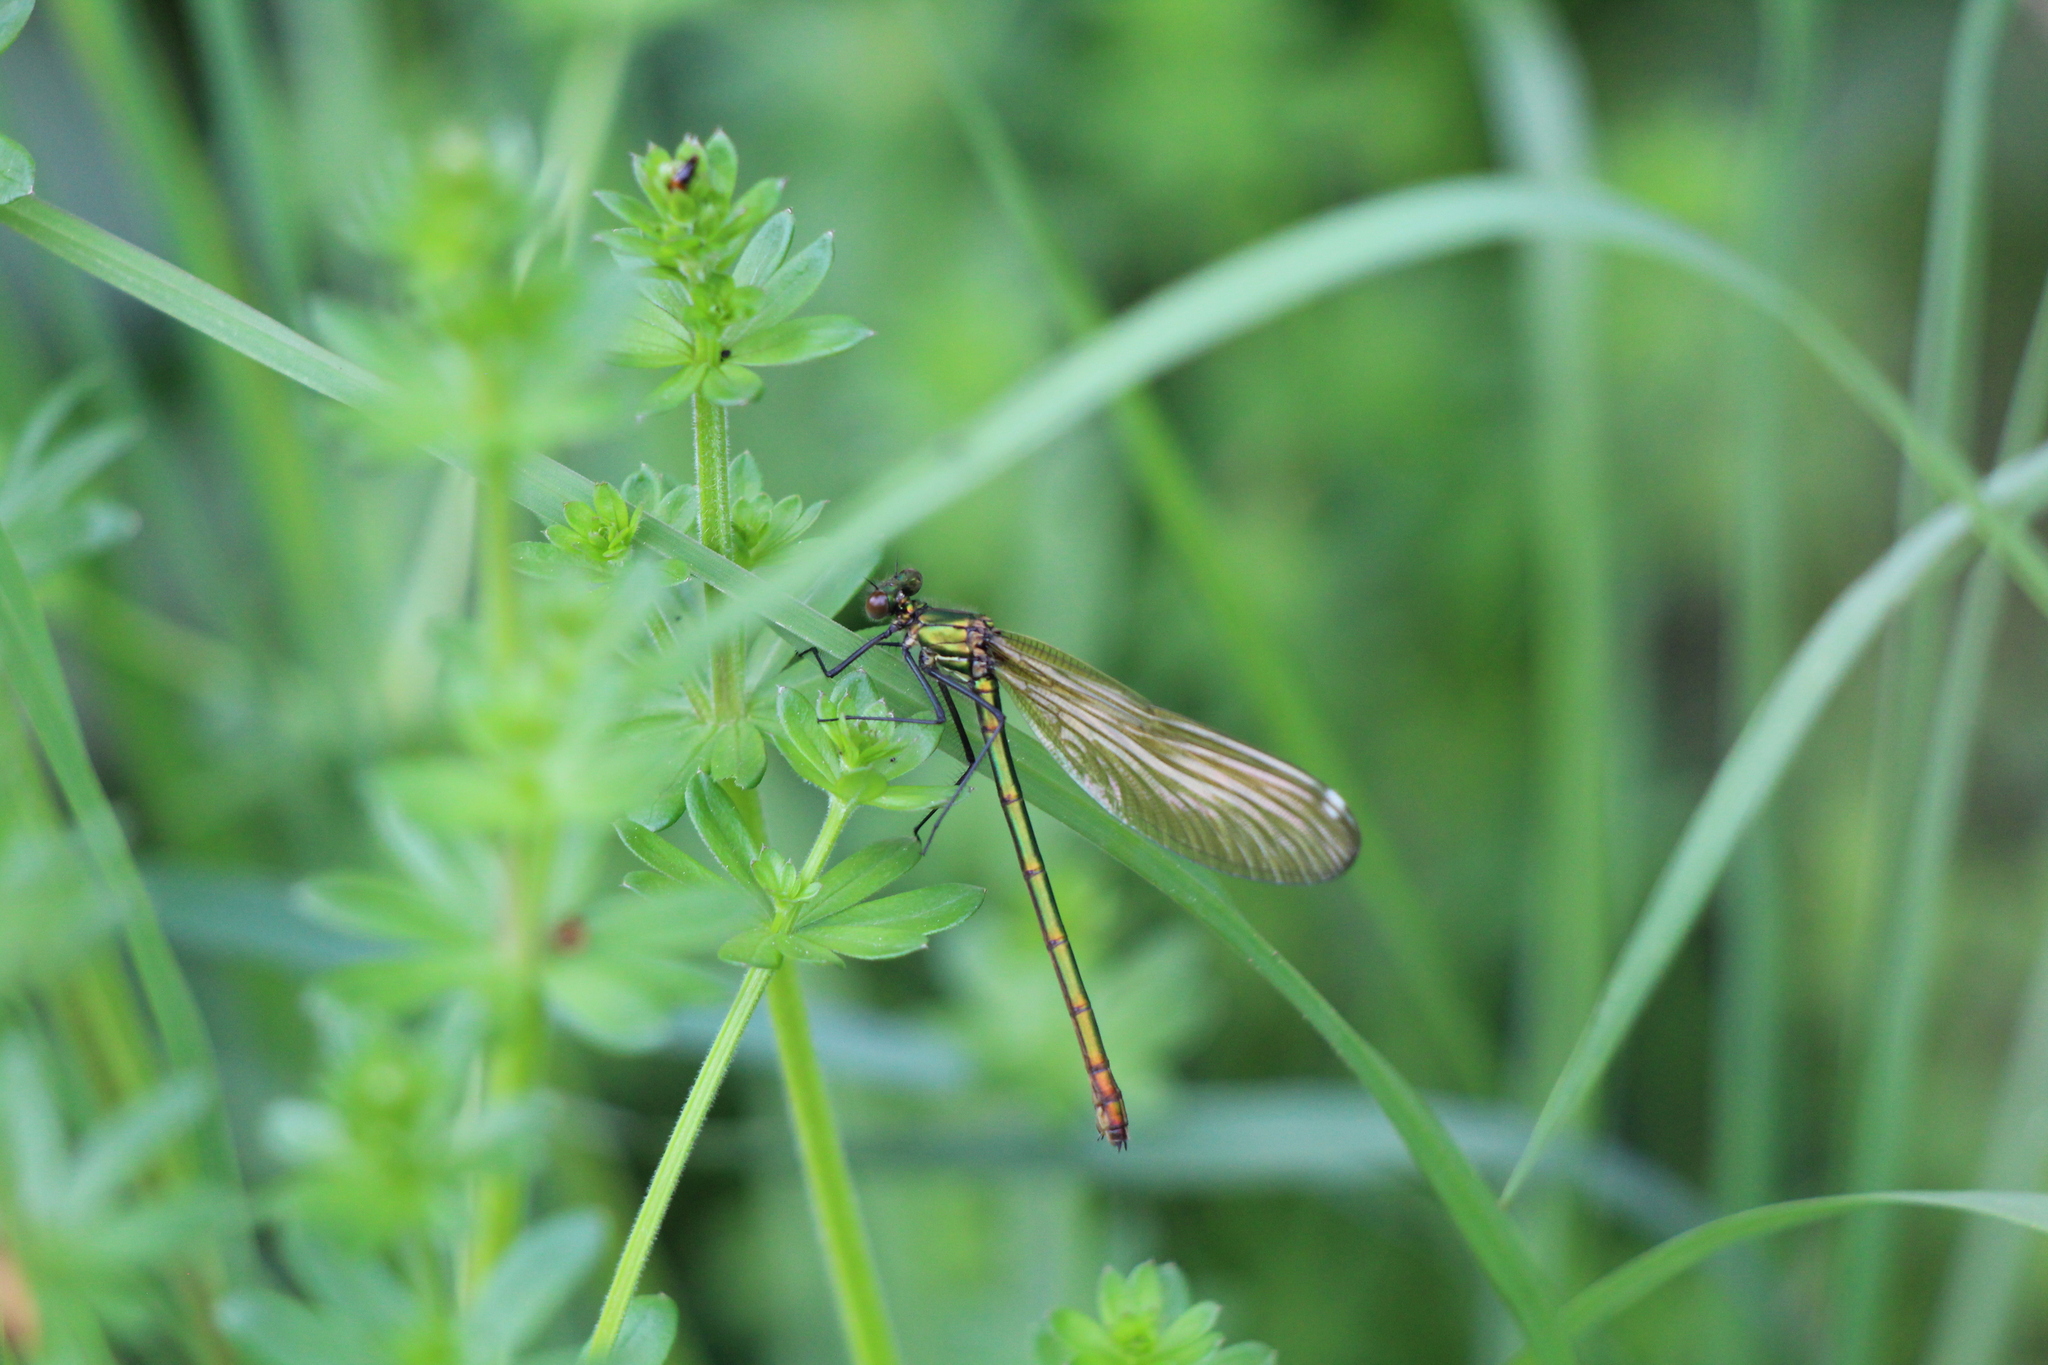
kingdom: Animalia
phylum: Arthropoda
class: Insecta
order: Odonata
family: Calopterygidae
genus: Calopteryx
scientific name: Calopteryx splendens
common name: Banded demoiselle
